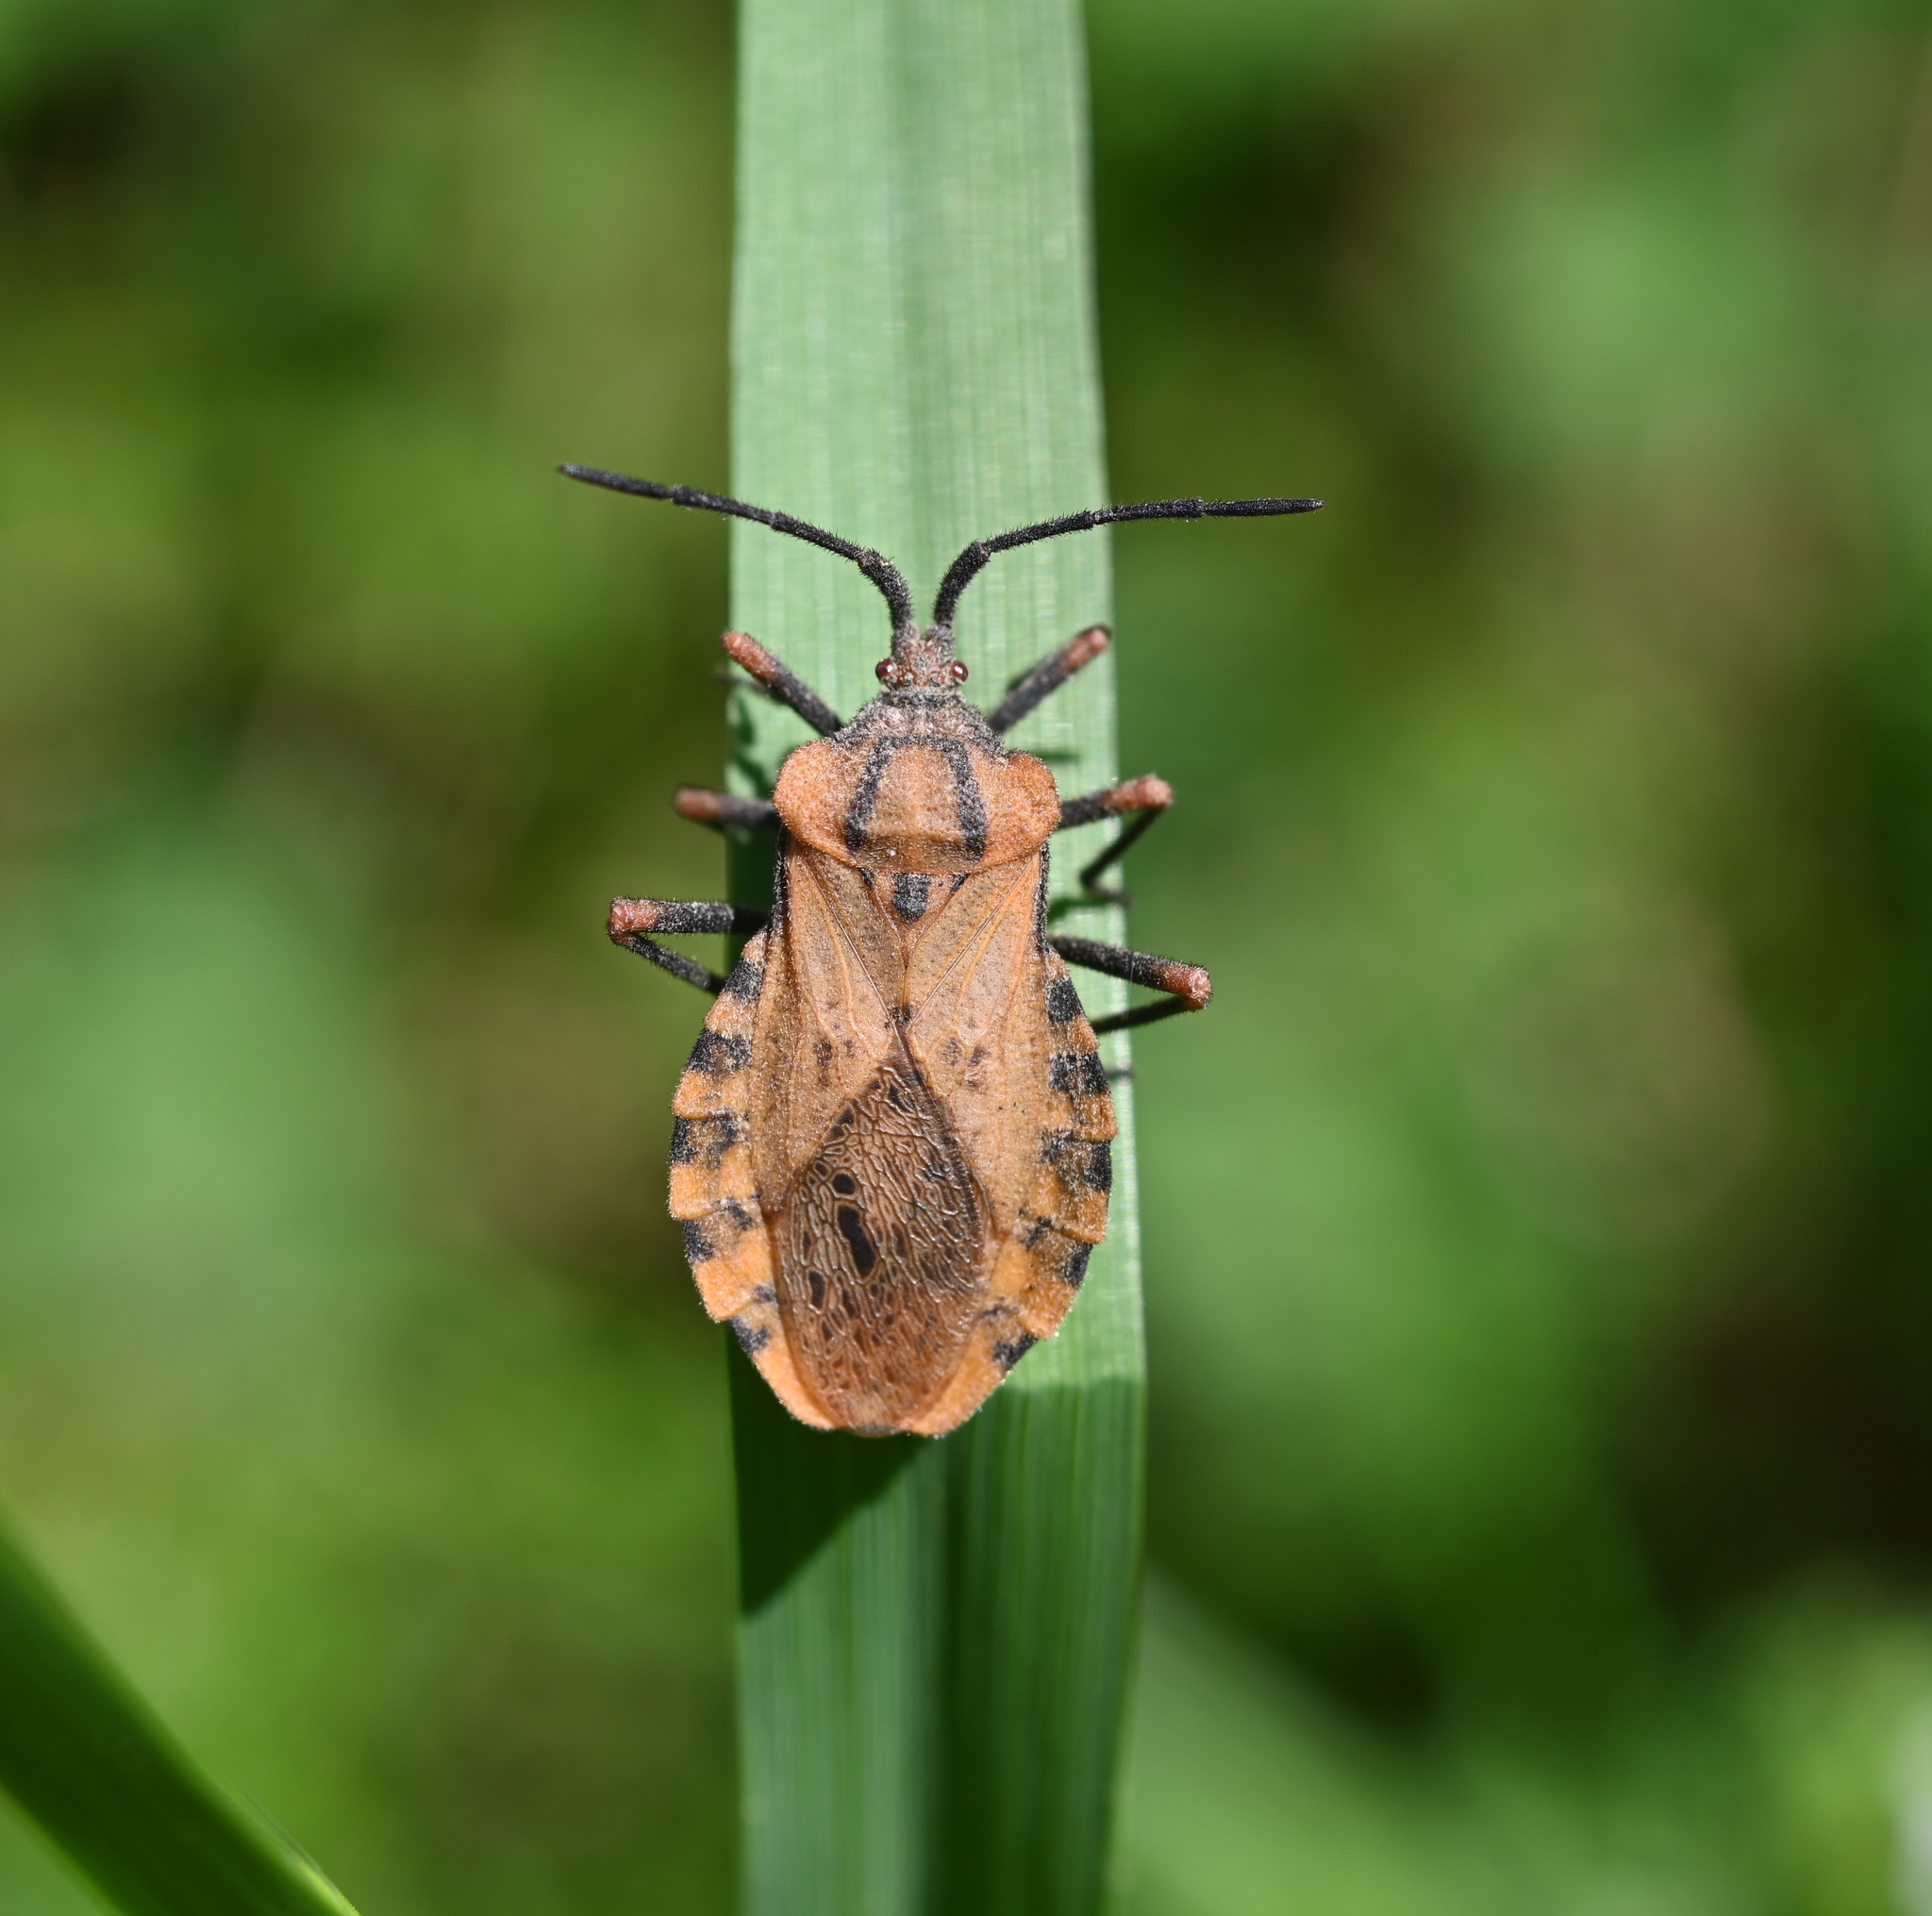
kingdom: Animalia
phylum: Arthropoda
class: Insecta
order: Hemiptera
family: Coreidae
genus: Spartocera
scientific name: Spartocera fusca
